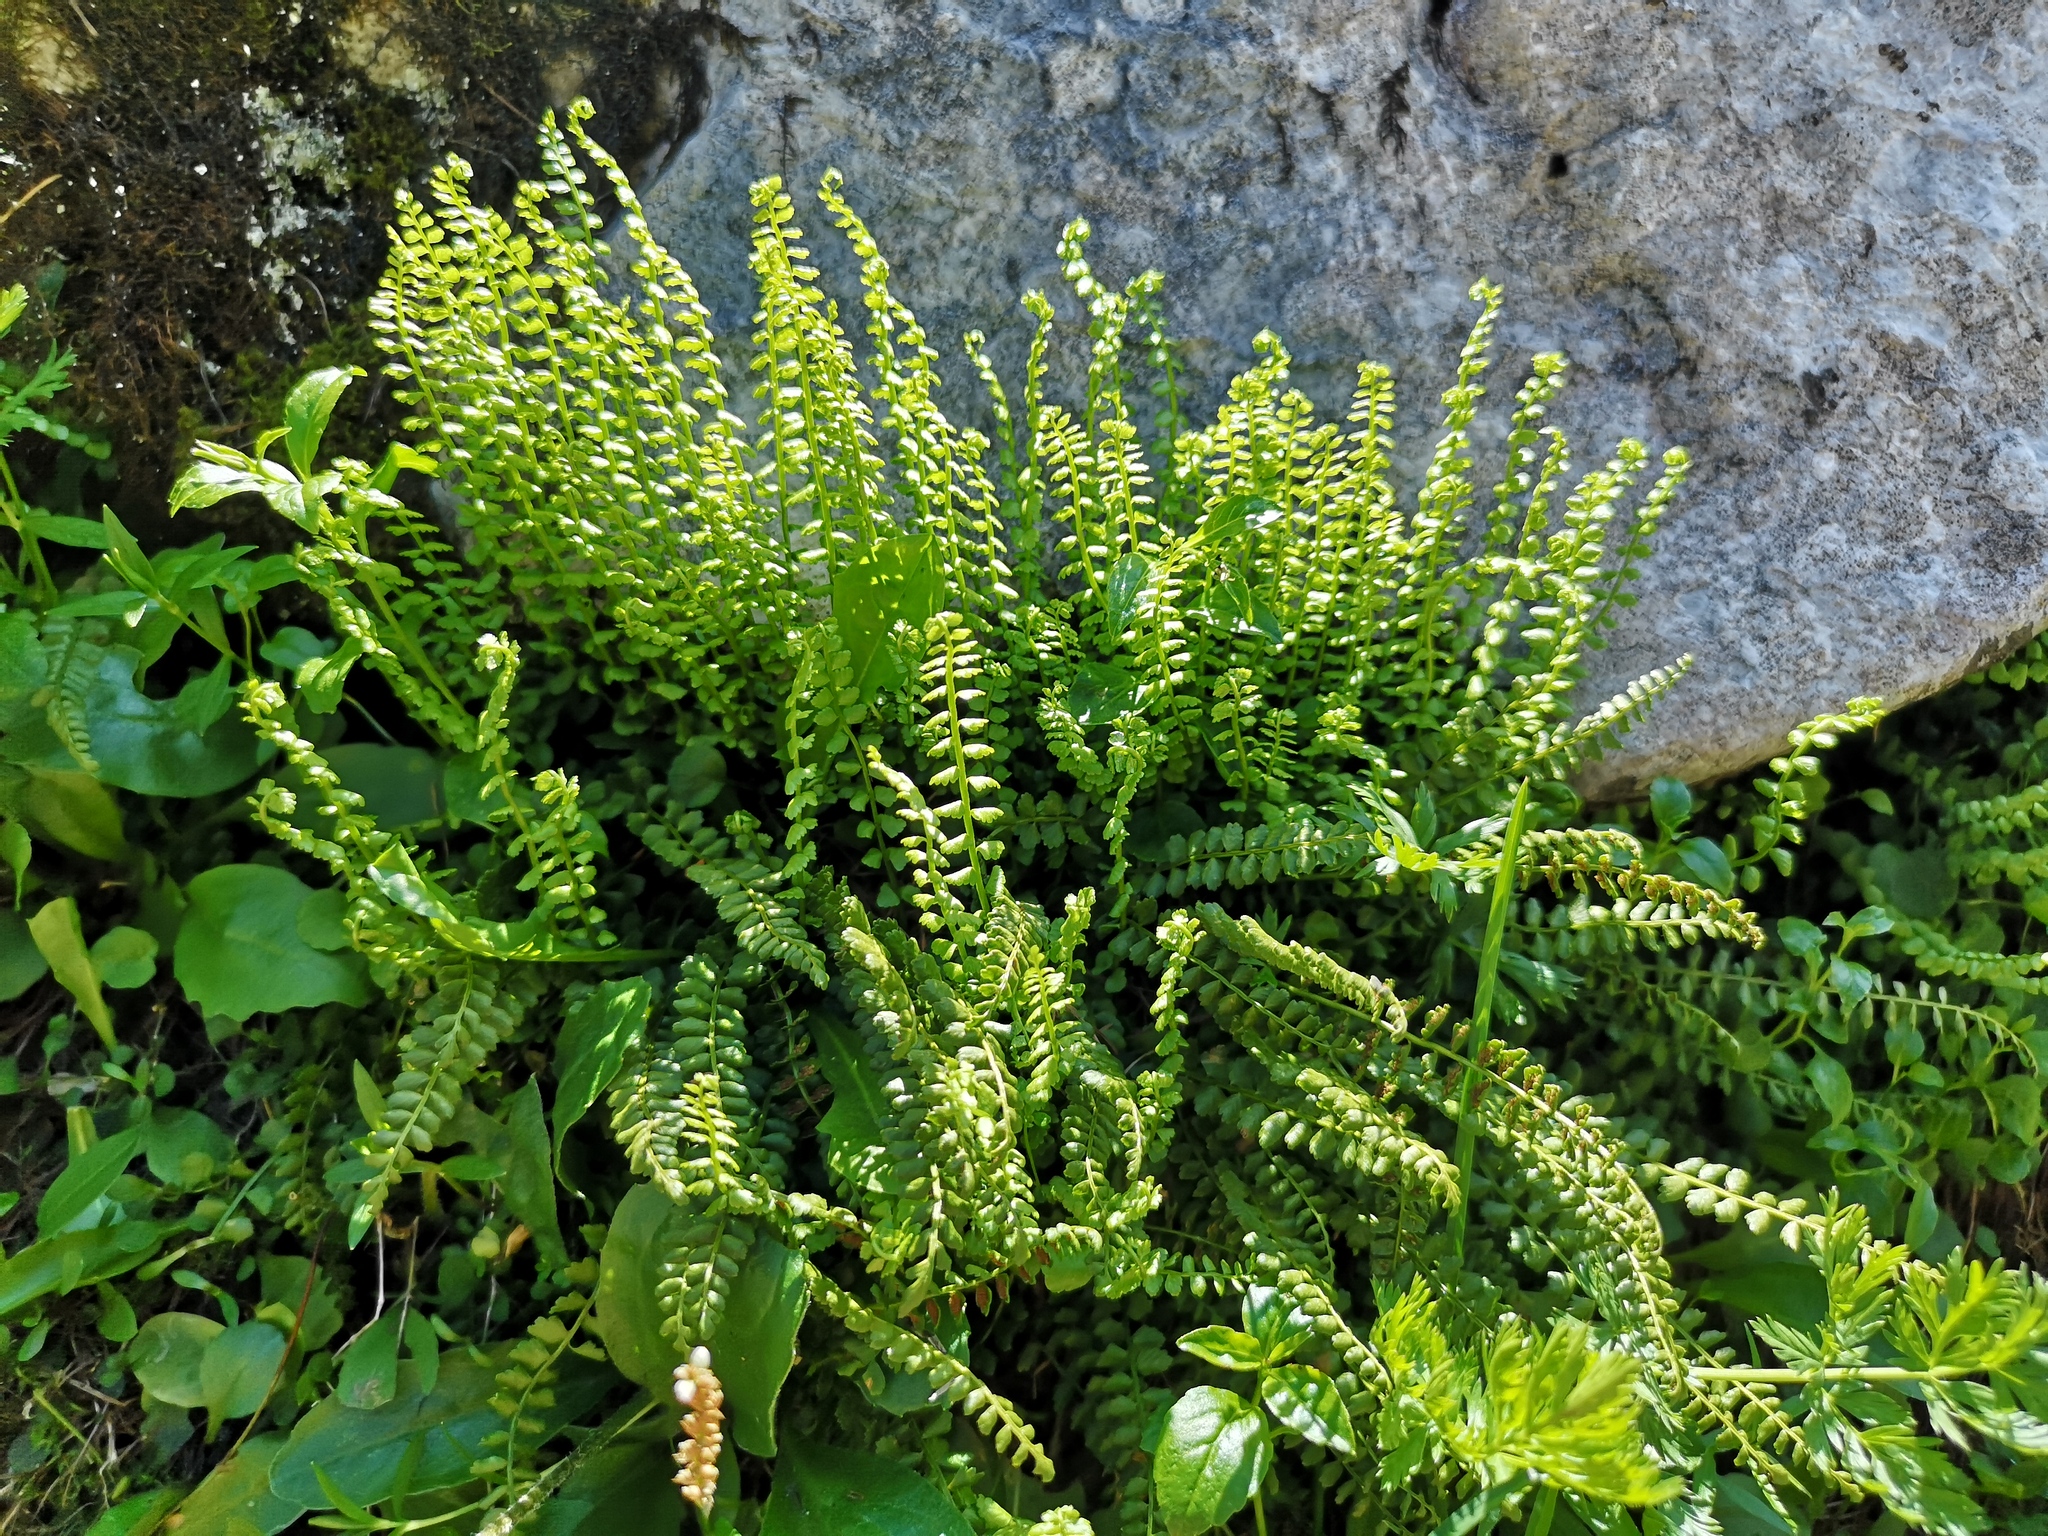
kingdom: Plantae
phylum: Tracheophyta
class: Polypodiopsida
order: Polypodiales
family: Aspleniaceae
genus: Asplenium
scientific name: Asplenium viride
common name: Green spleenwort
